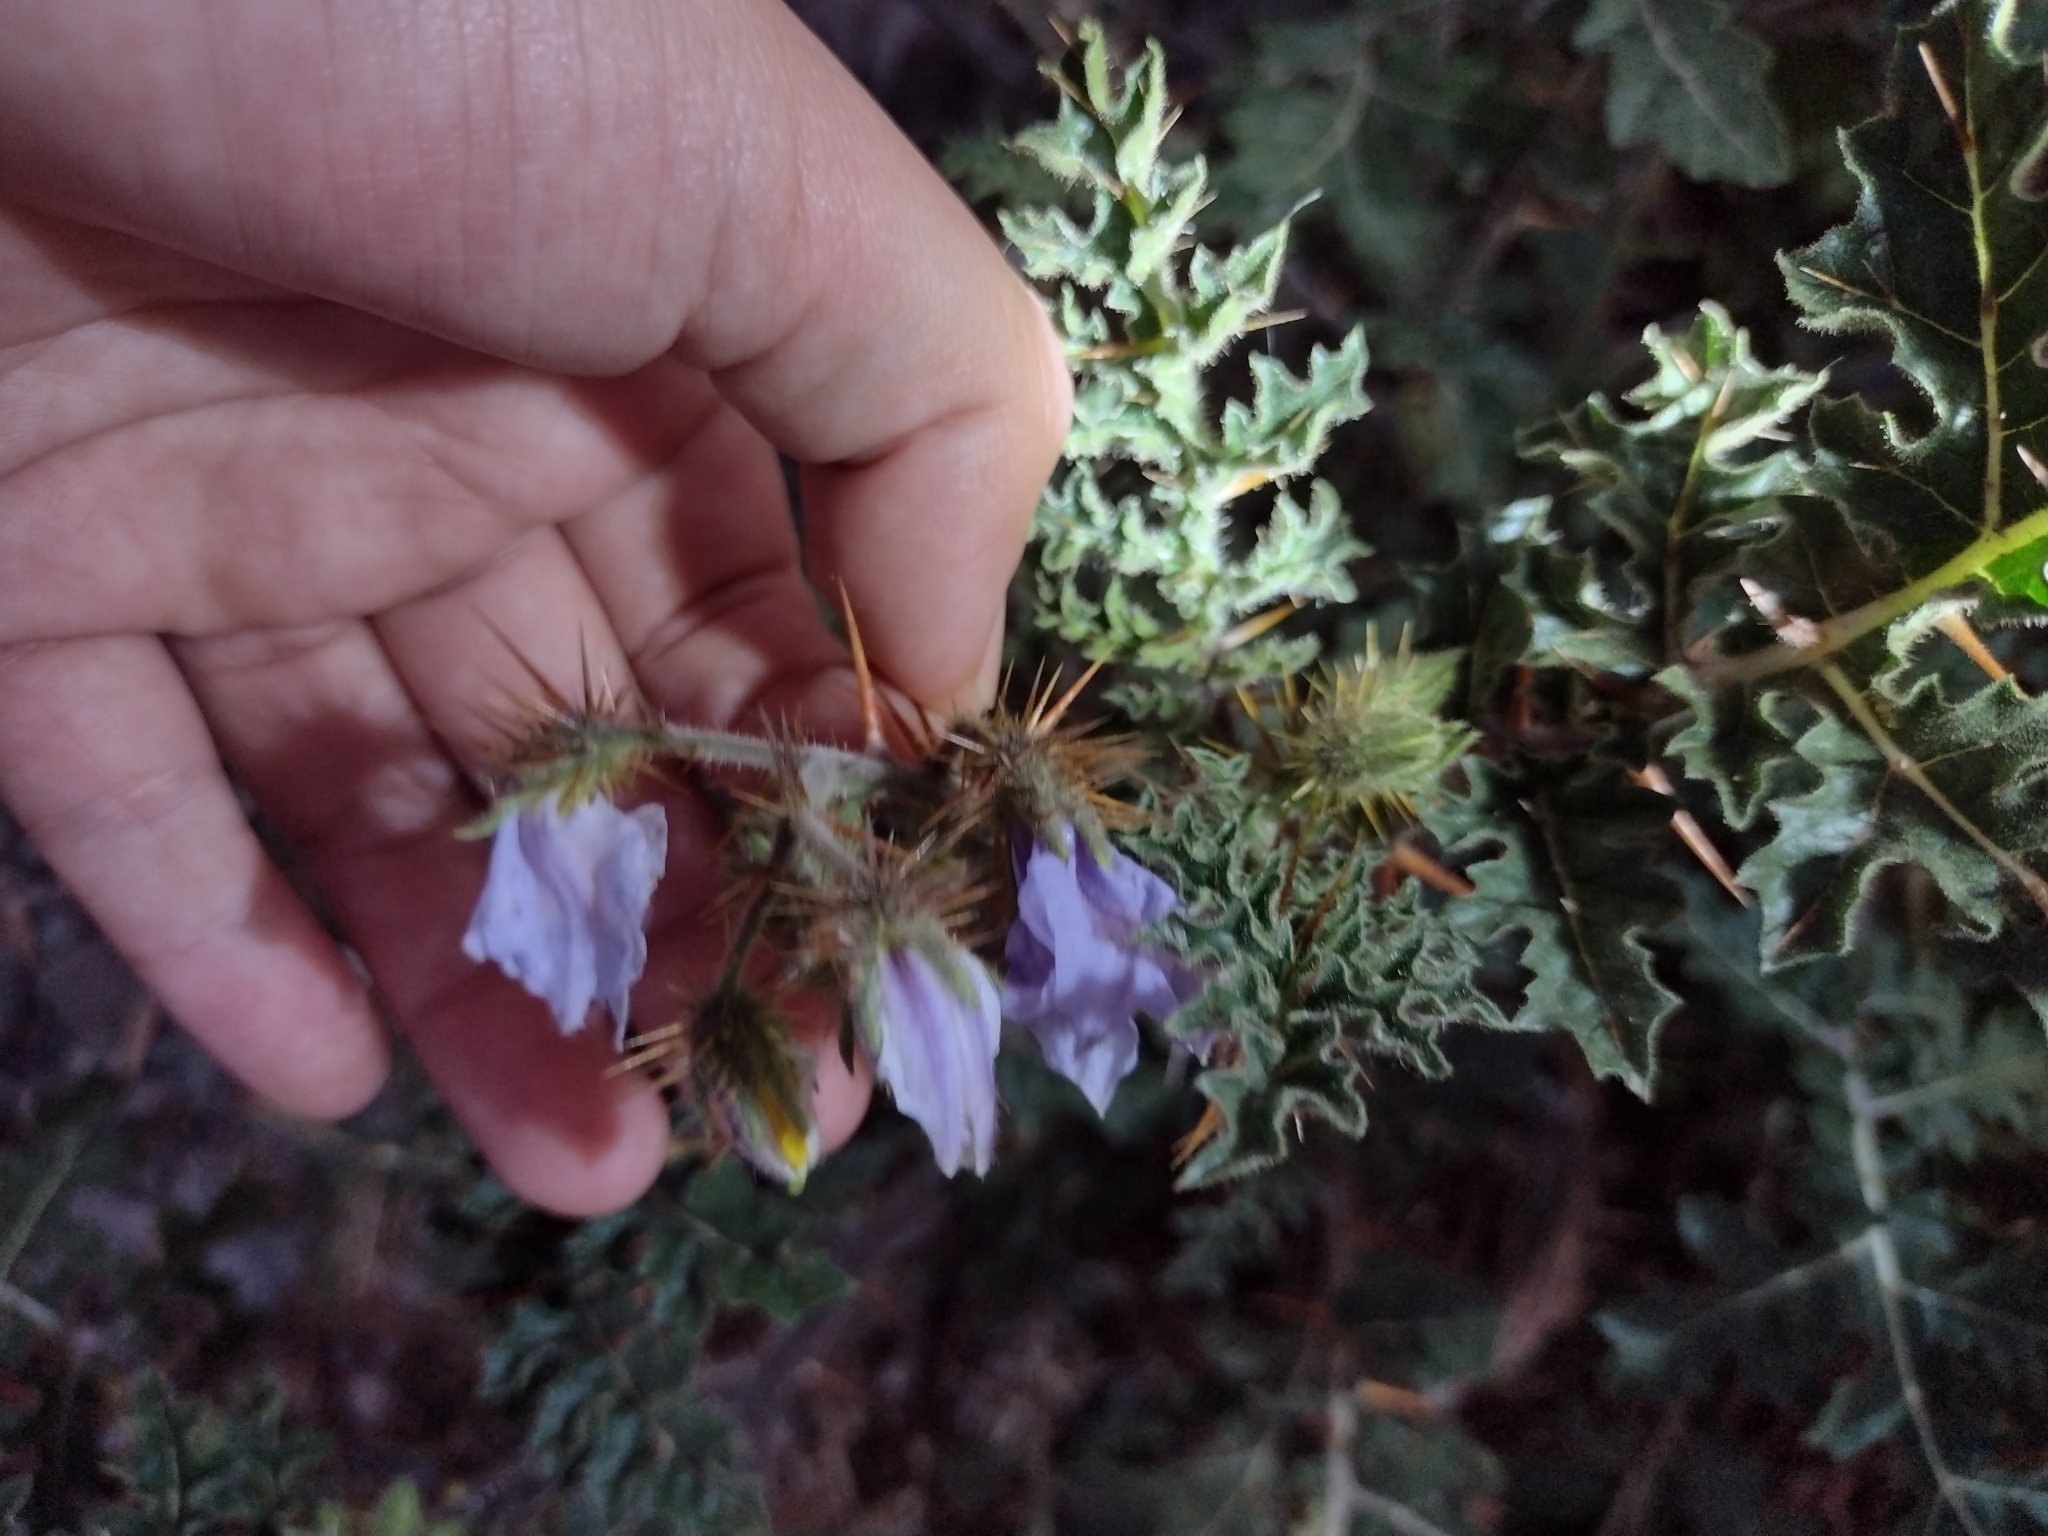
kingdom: Plantae
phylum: Tracheophyta
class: Magnoliopsida
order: Solanales
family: Solanaceae
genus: Solanum
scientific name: Solanum sisymbriifolium
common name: Red buffalo-bur
